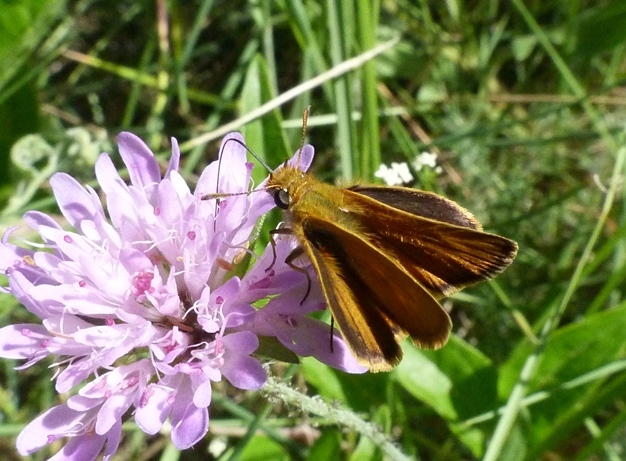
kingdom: Animalia
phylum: Arthropoda
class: Insecta
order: Lepidoptera
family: Hesperiidae
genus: Thymelicus
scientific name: Thymelicus acteon
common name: Lulworth skipper
